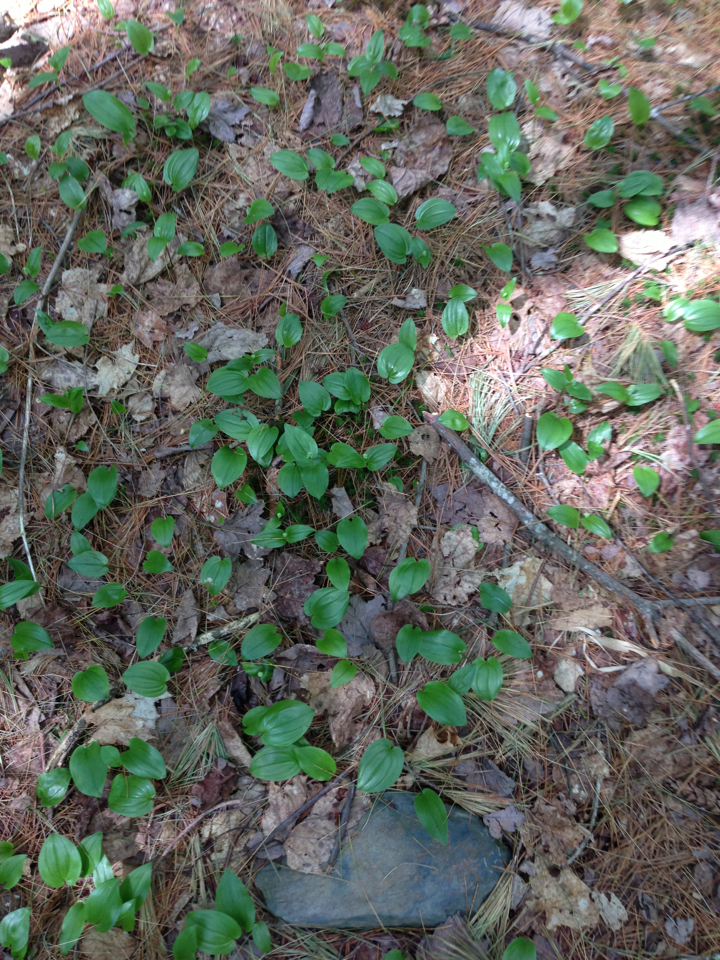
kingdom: Plantae
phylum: Tracheophyta
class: Liliopsida
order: Asparagales
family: Asparagaceae
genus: Maianthemum
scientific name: Maianthemum canadense
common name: False lily-of-the-valley
